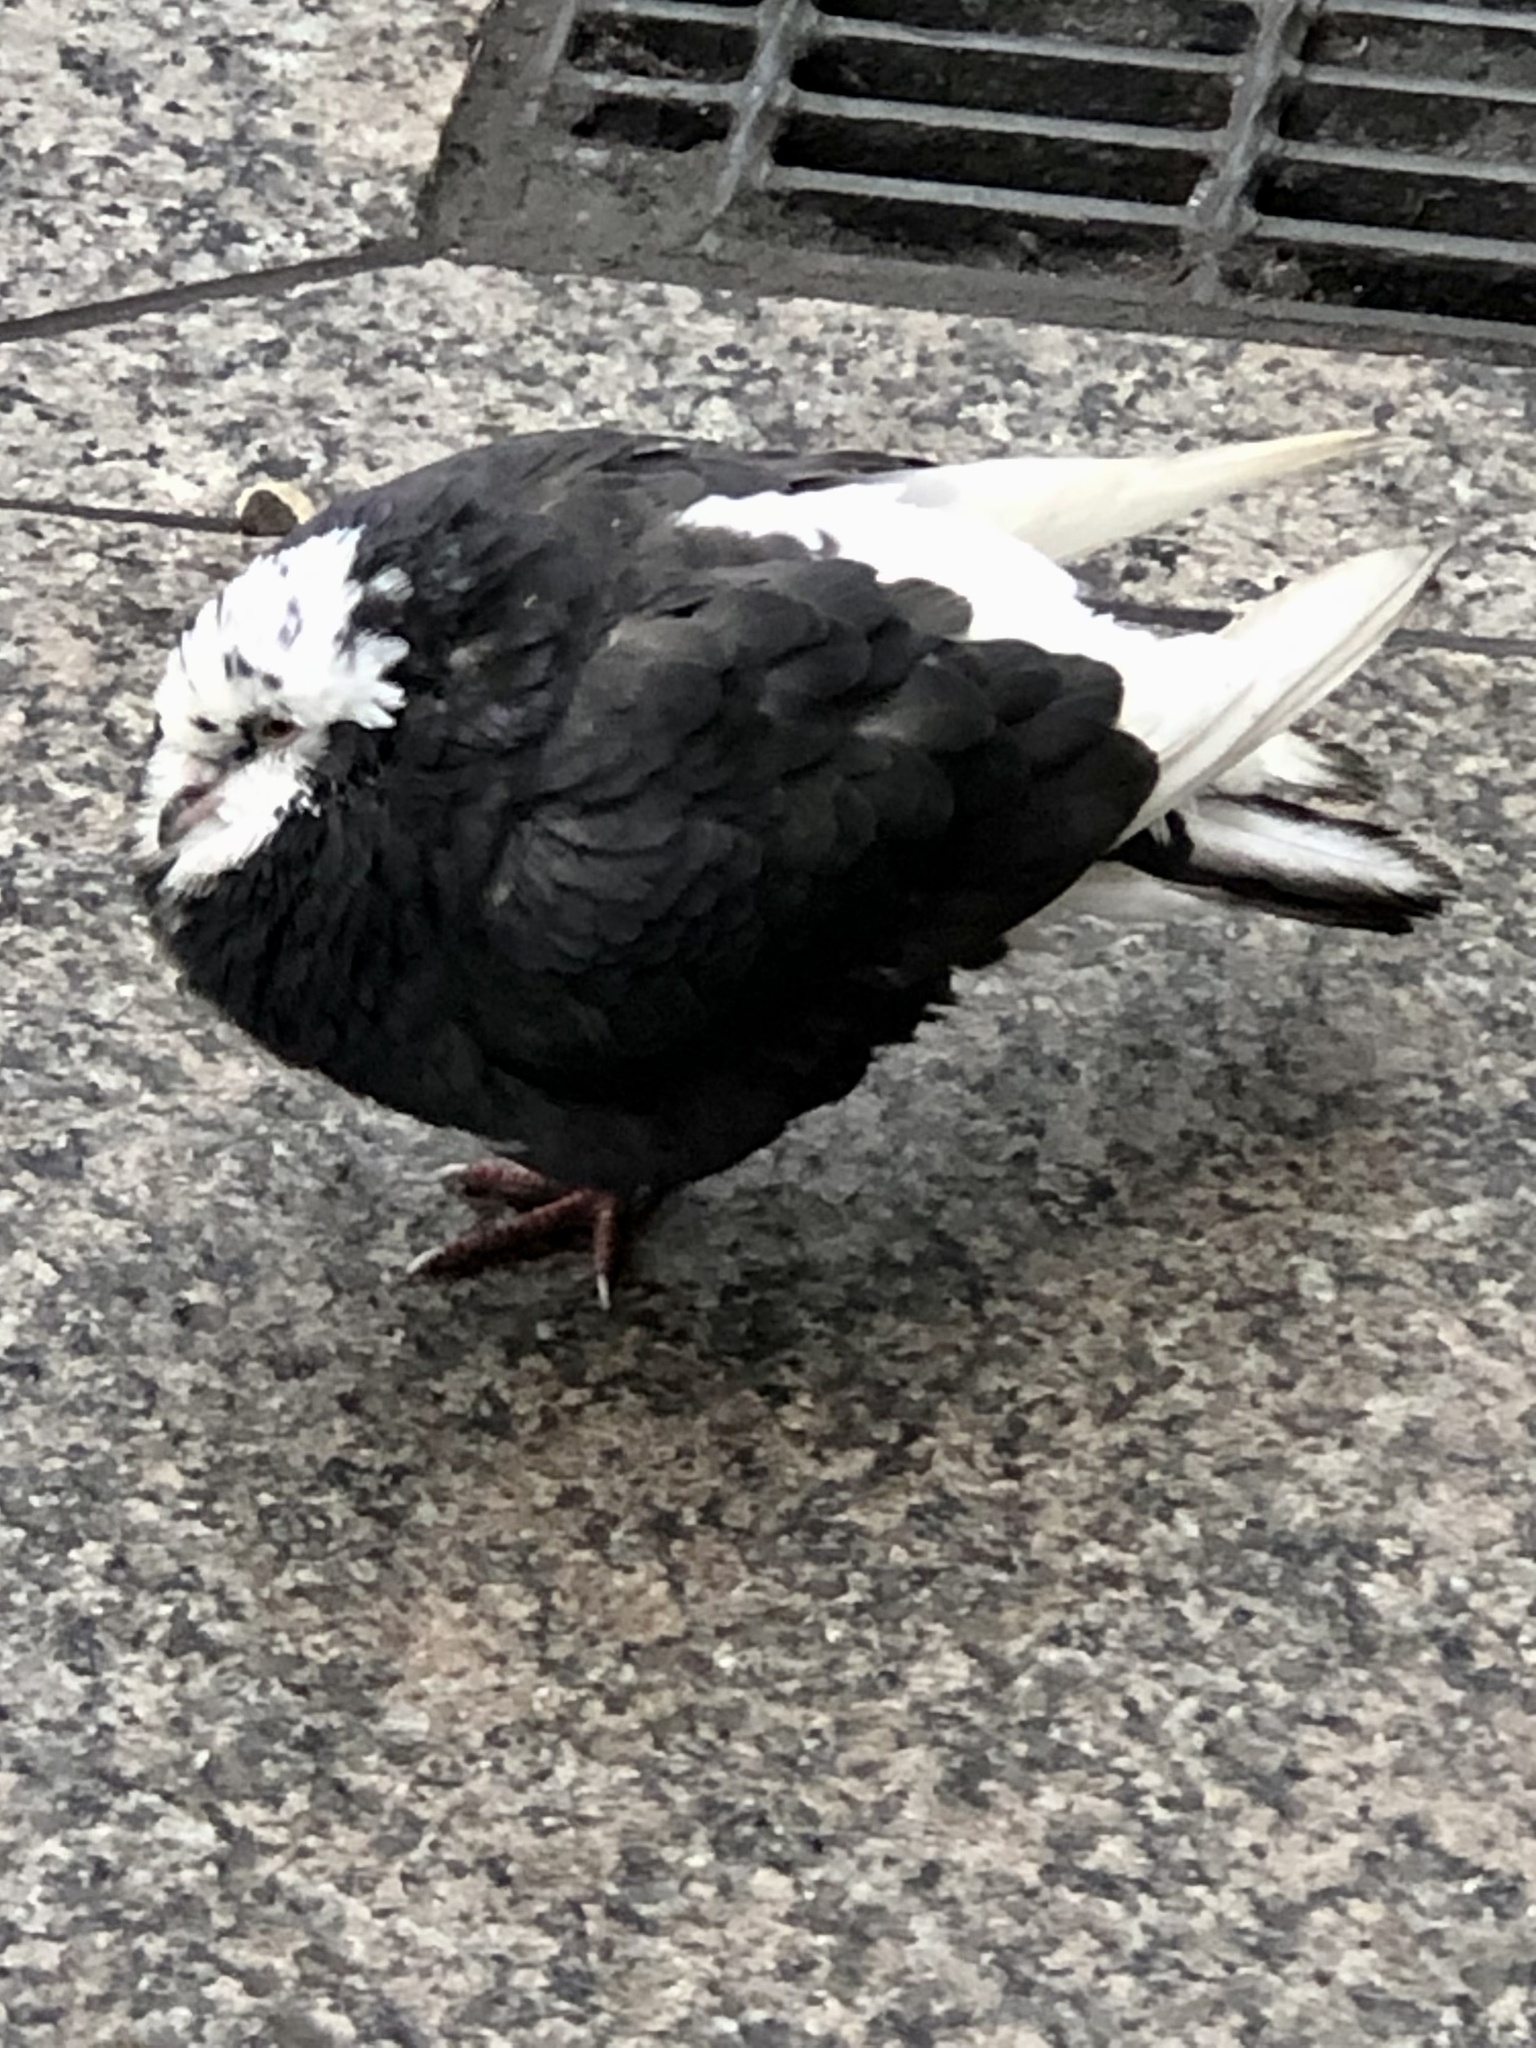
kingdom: Animalia
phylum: Chordata
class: Aves
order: Columbiformes
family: Columbidae
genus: Columba
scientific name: Columba livia
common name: Rock pigeon
